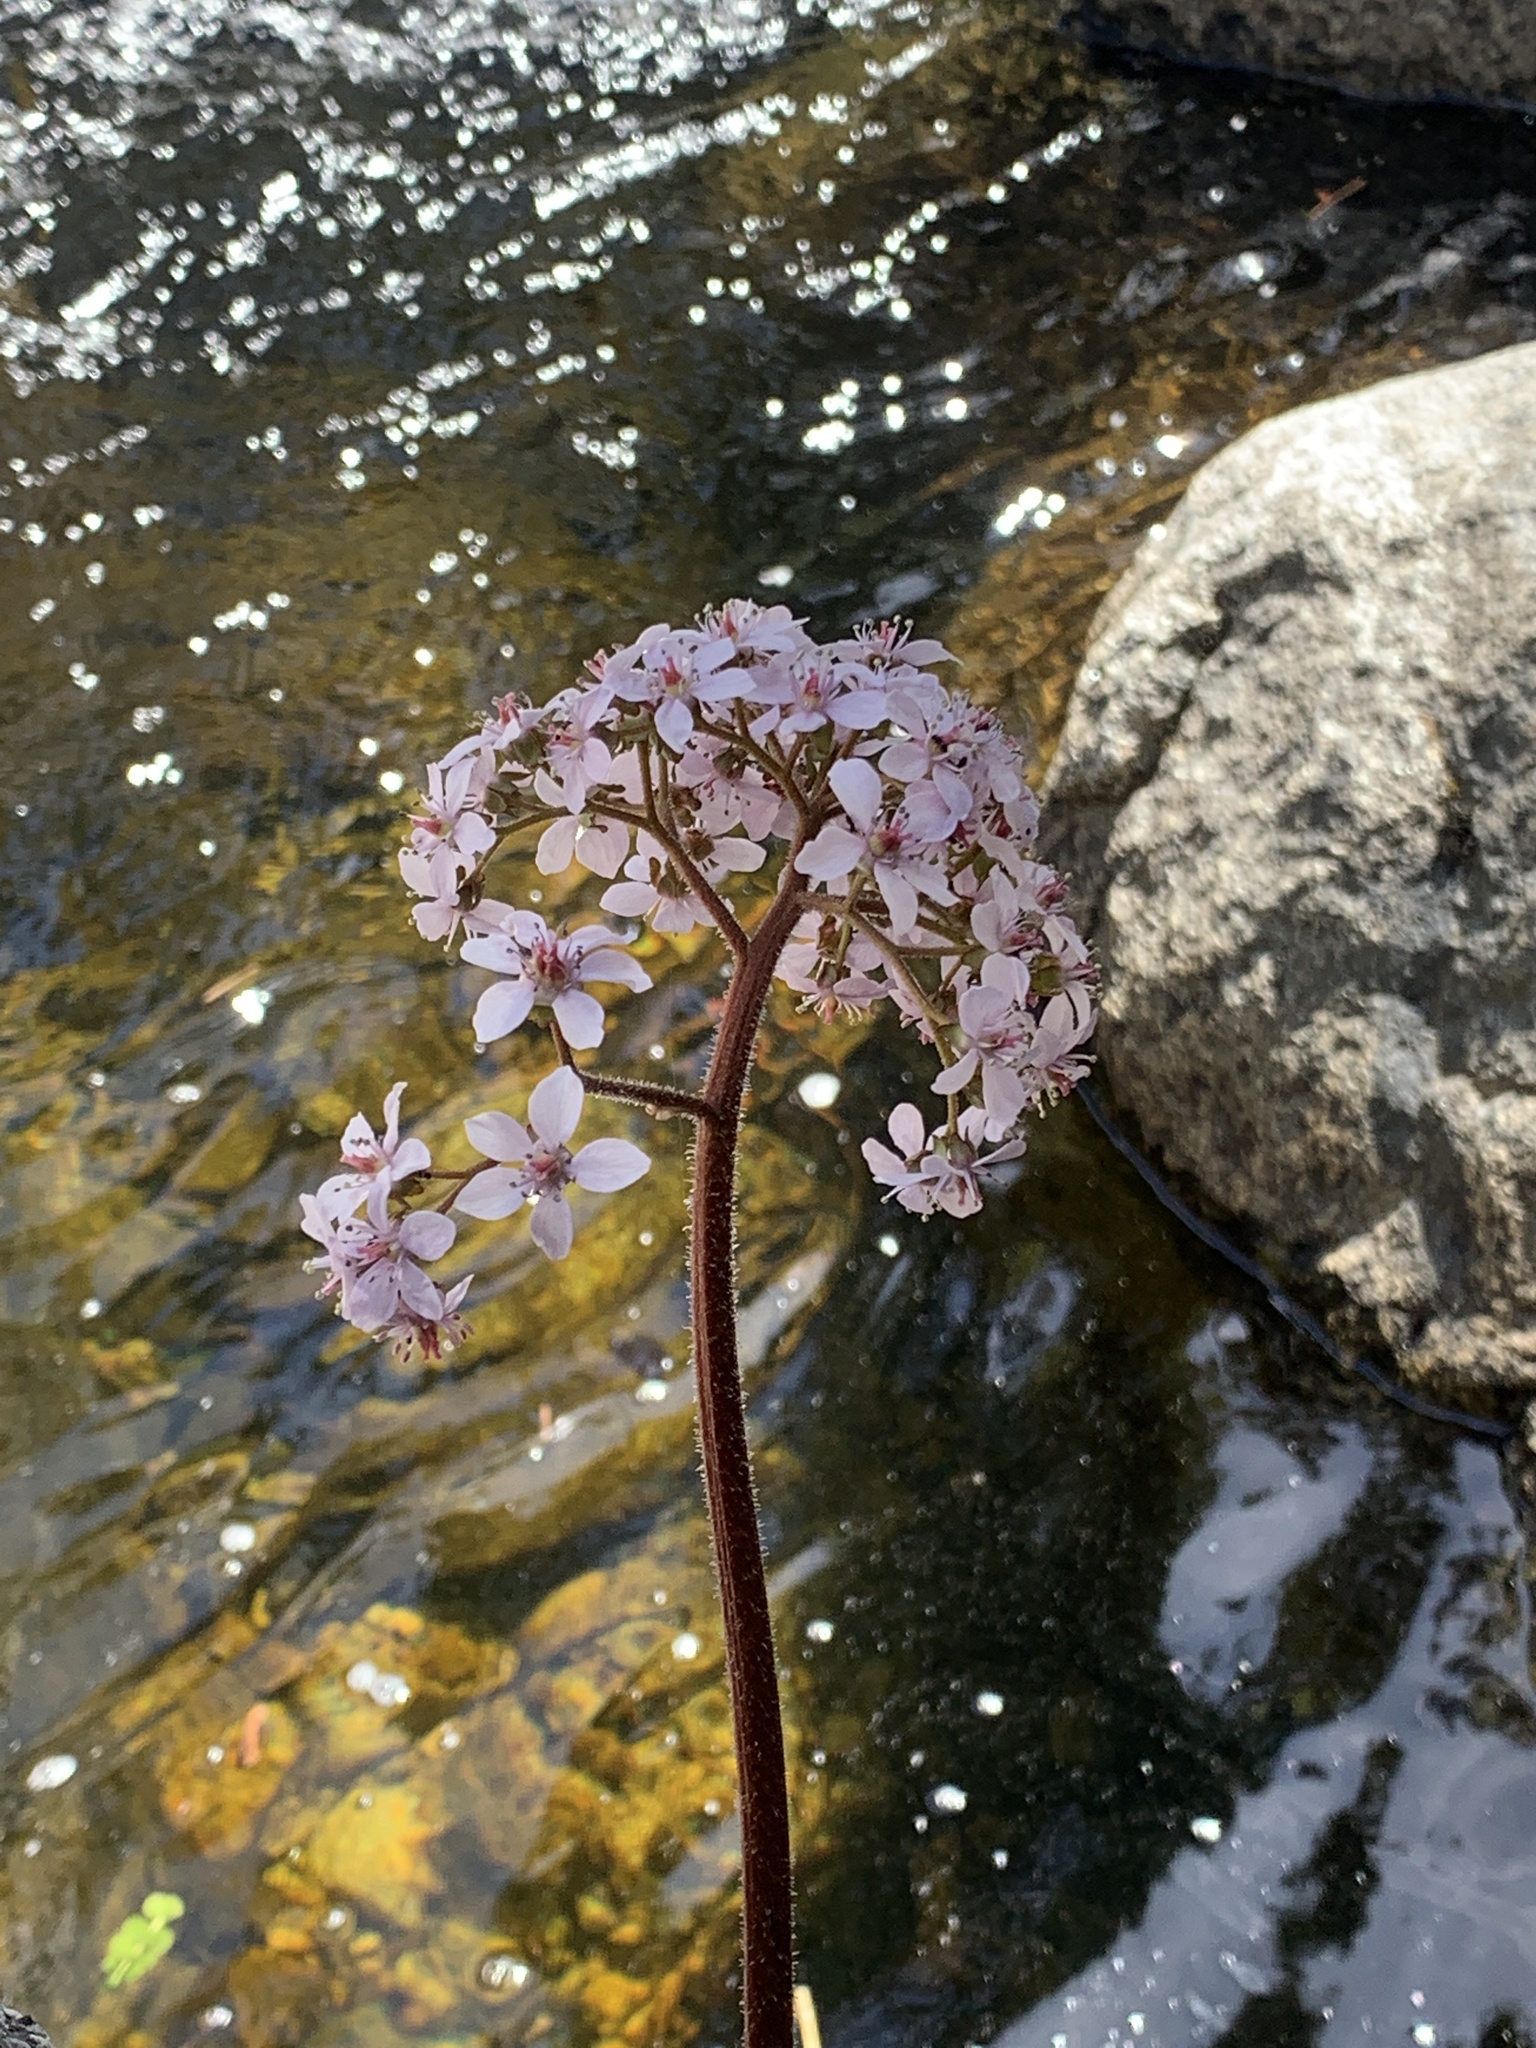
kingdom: Plantae
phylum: Tracheophyta
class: Magnoliopsida
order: Saxifragales
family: Saxifragaceae
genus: Darmera
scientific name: Darmera peltata
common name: Indian-rhubarb
